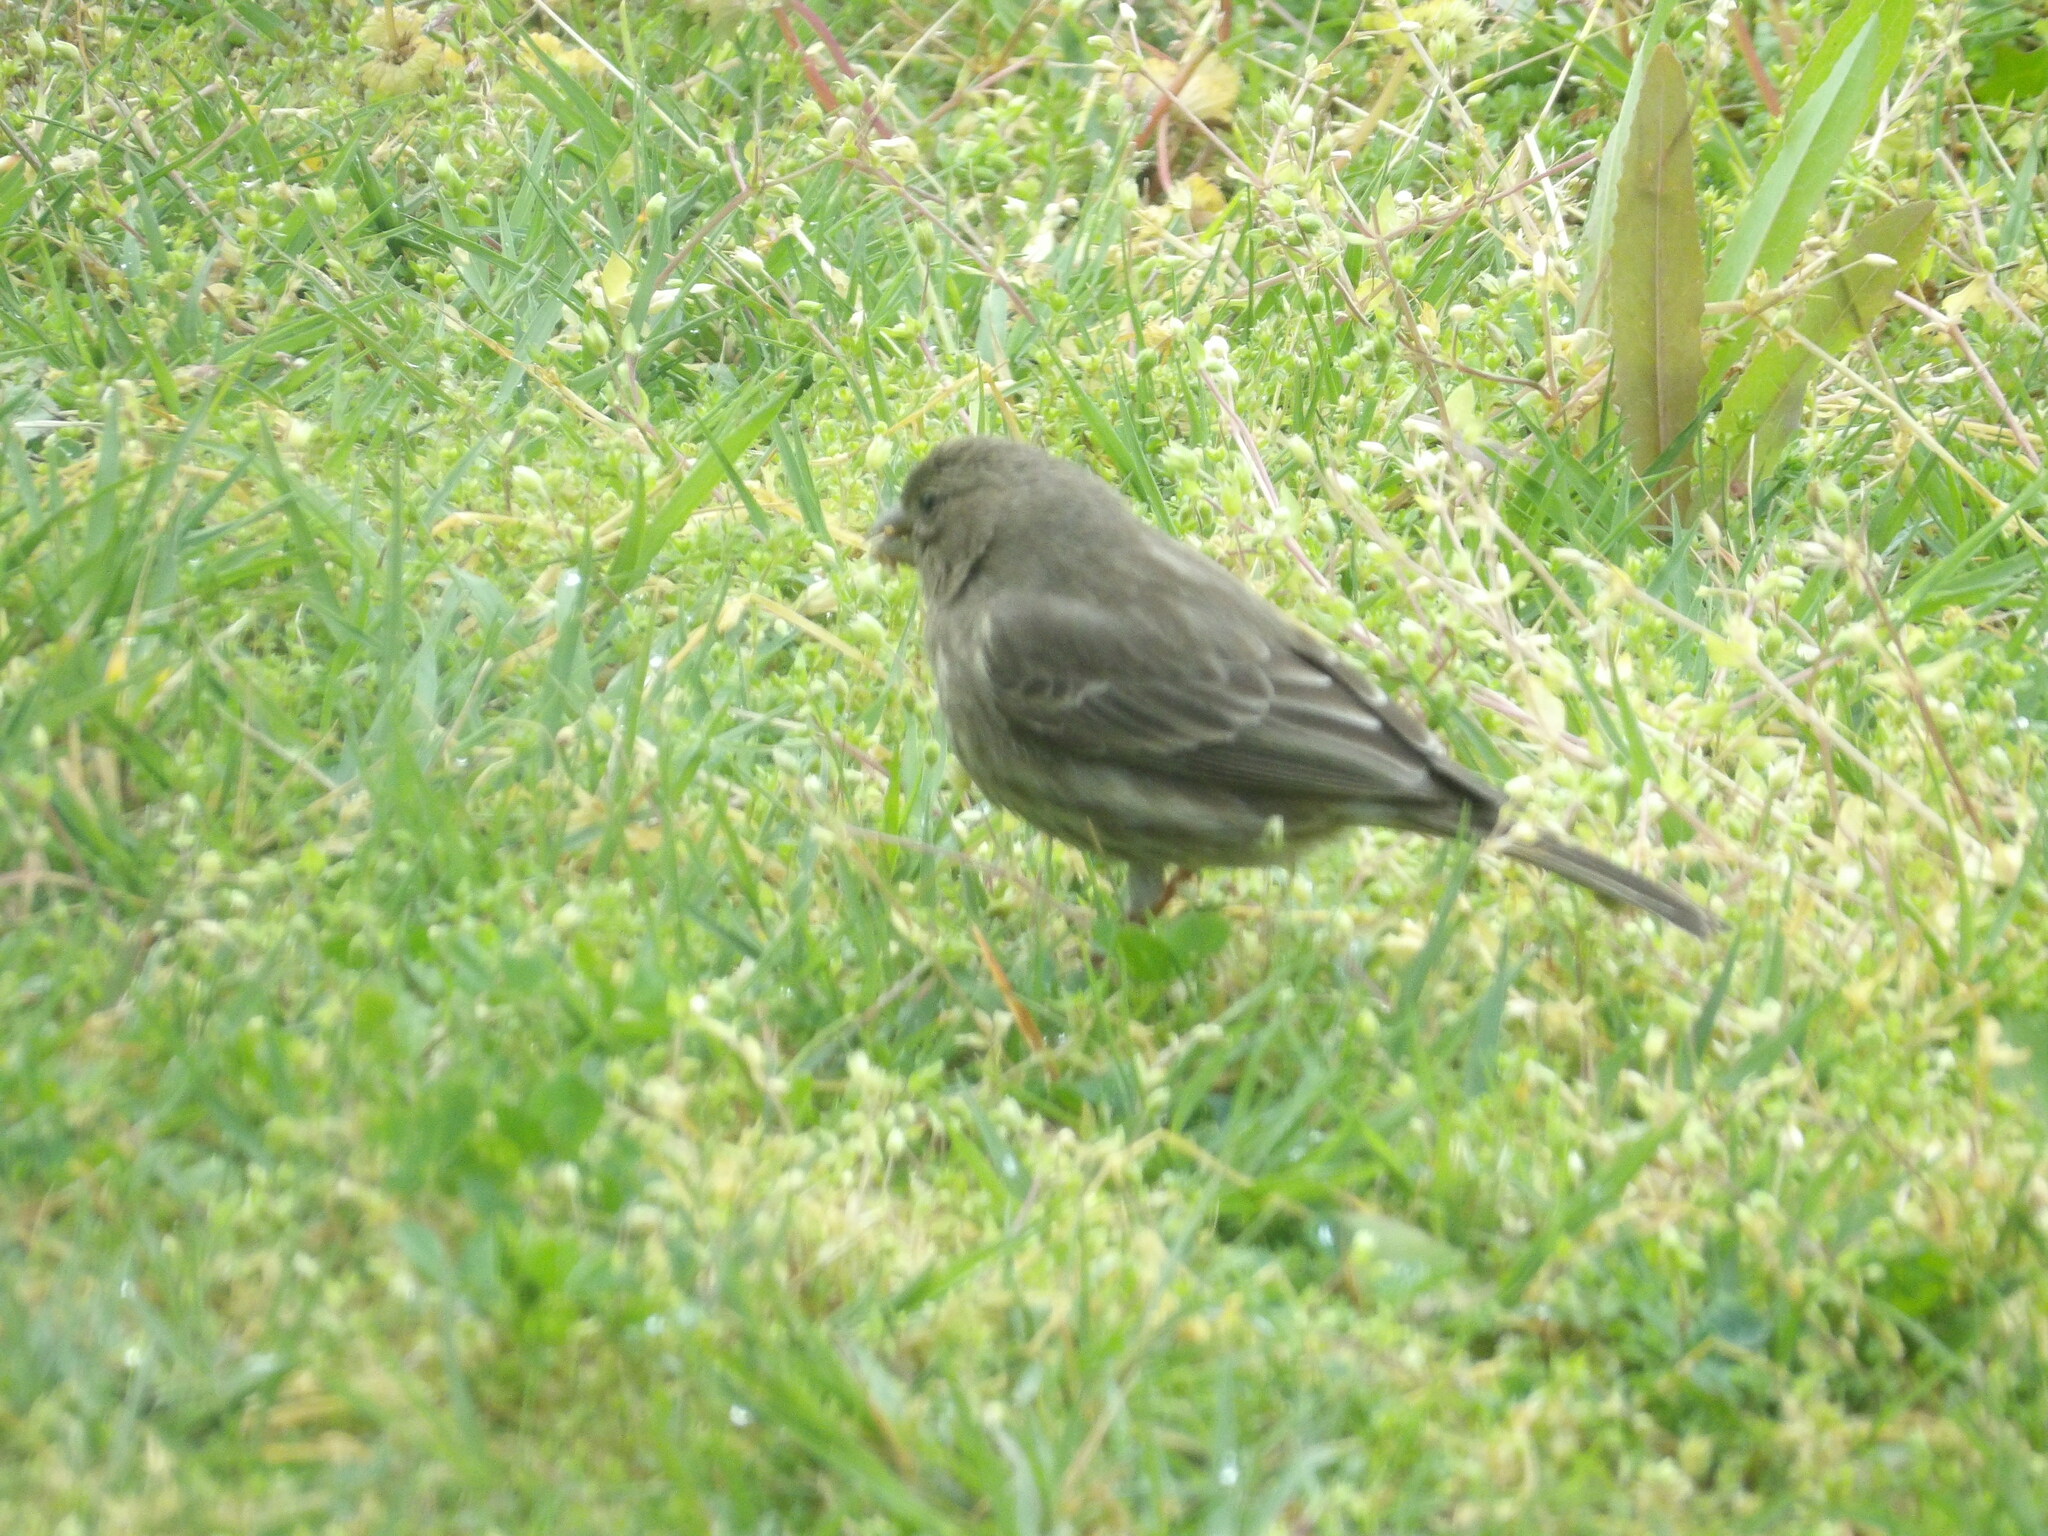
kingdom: Animalia
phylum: Chordata
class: Aves
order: Passeriformes
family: Fringillidae
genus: Haemorhous
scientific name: Haemorhous mexicanus
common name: House finch
